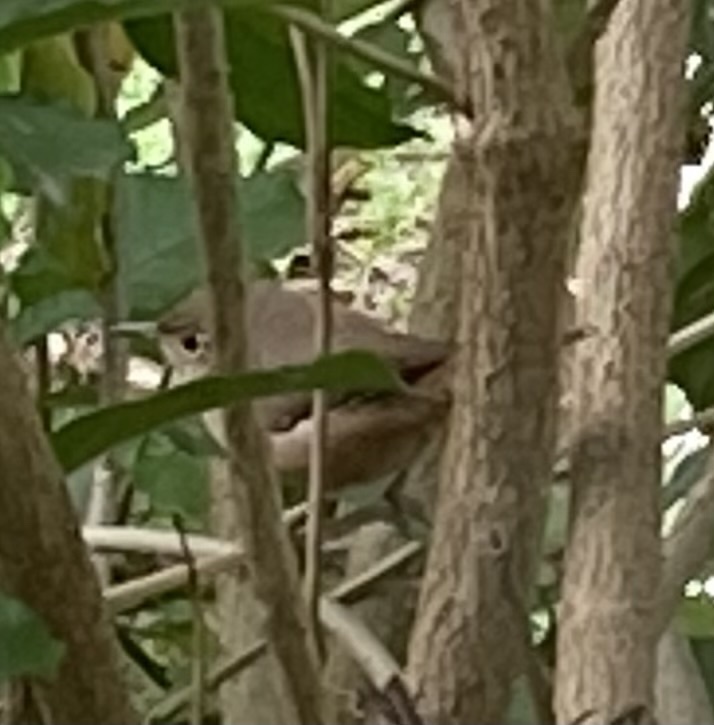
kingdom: Animalia
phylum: Chordata
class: Aves
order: Passeriformes
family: Troglodytidae
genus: Troglodytes
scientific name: Troglodytes aedon
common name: House wren
